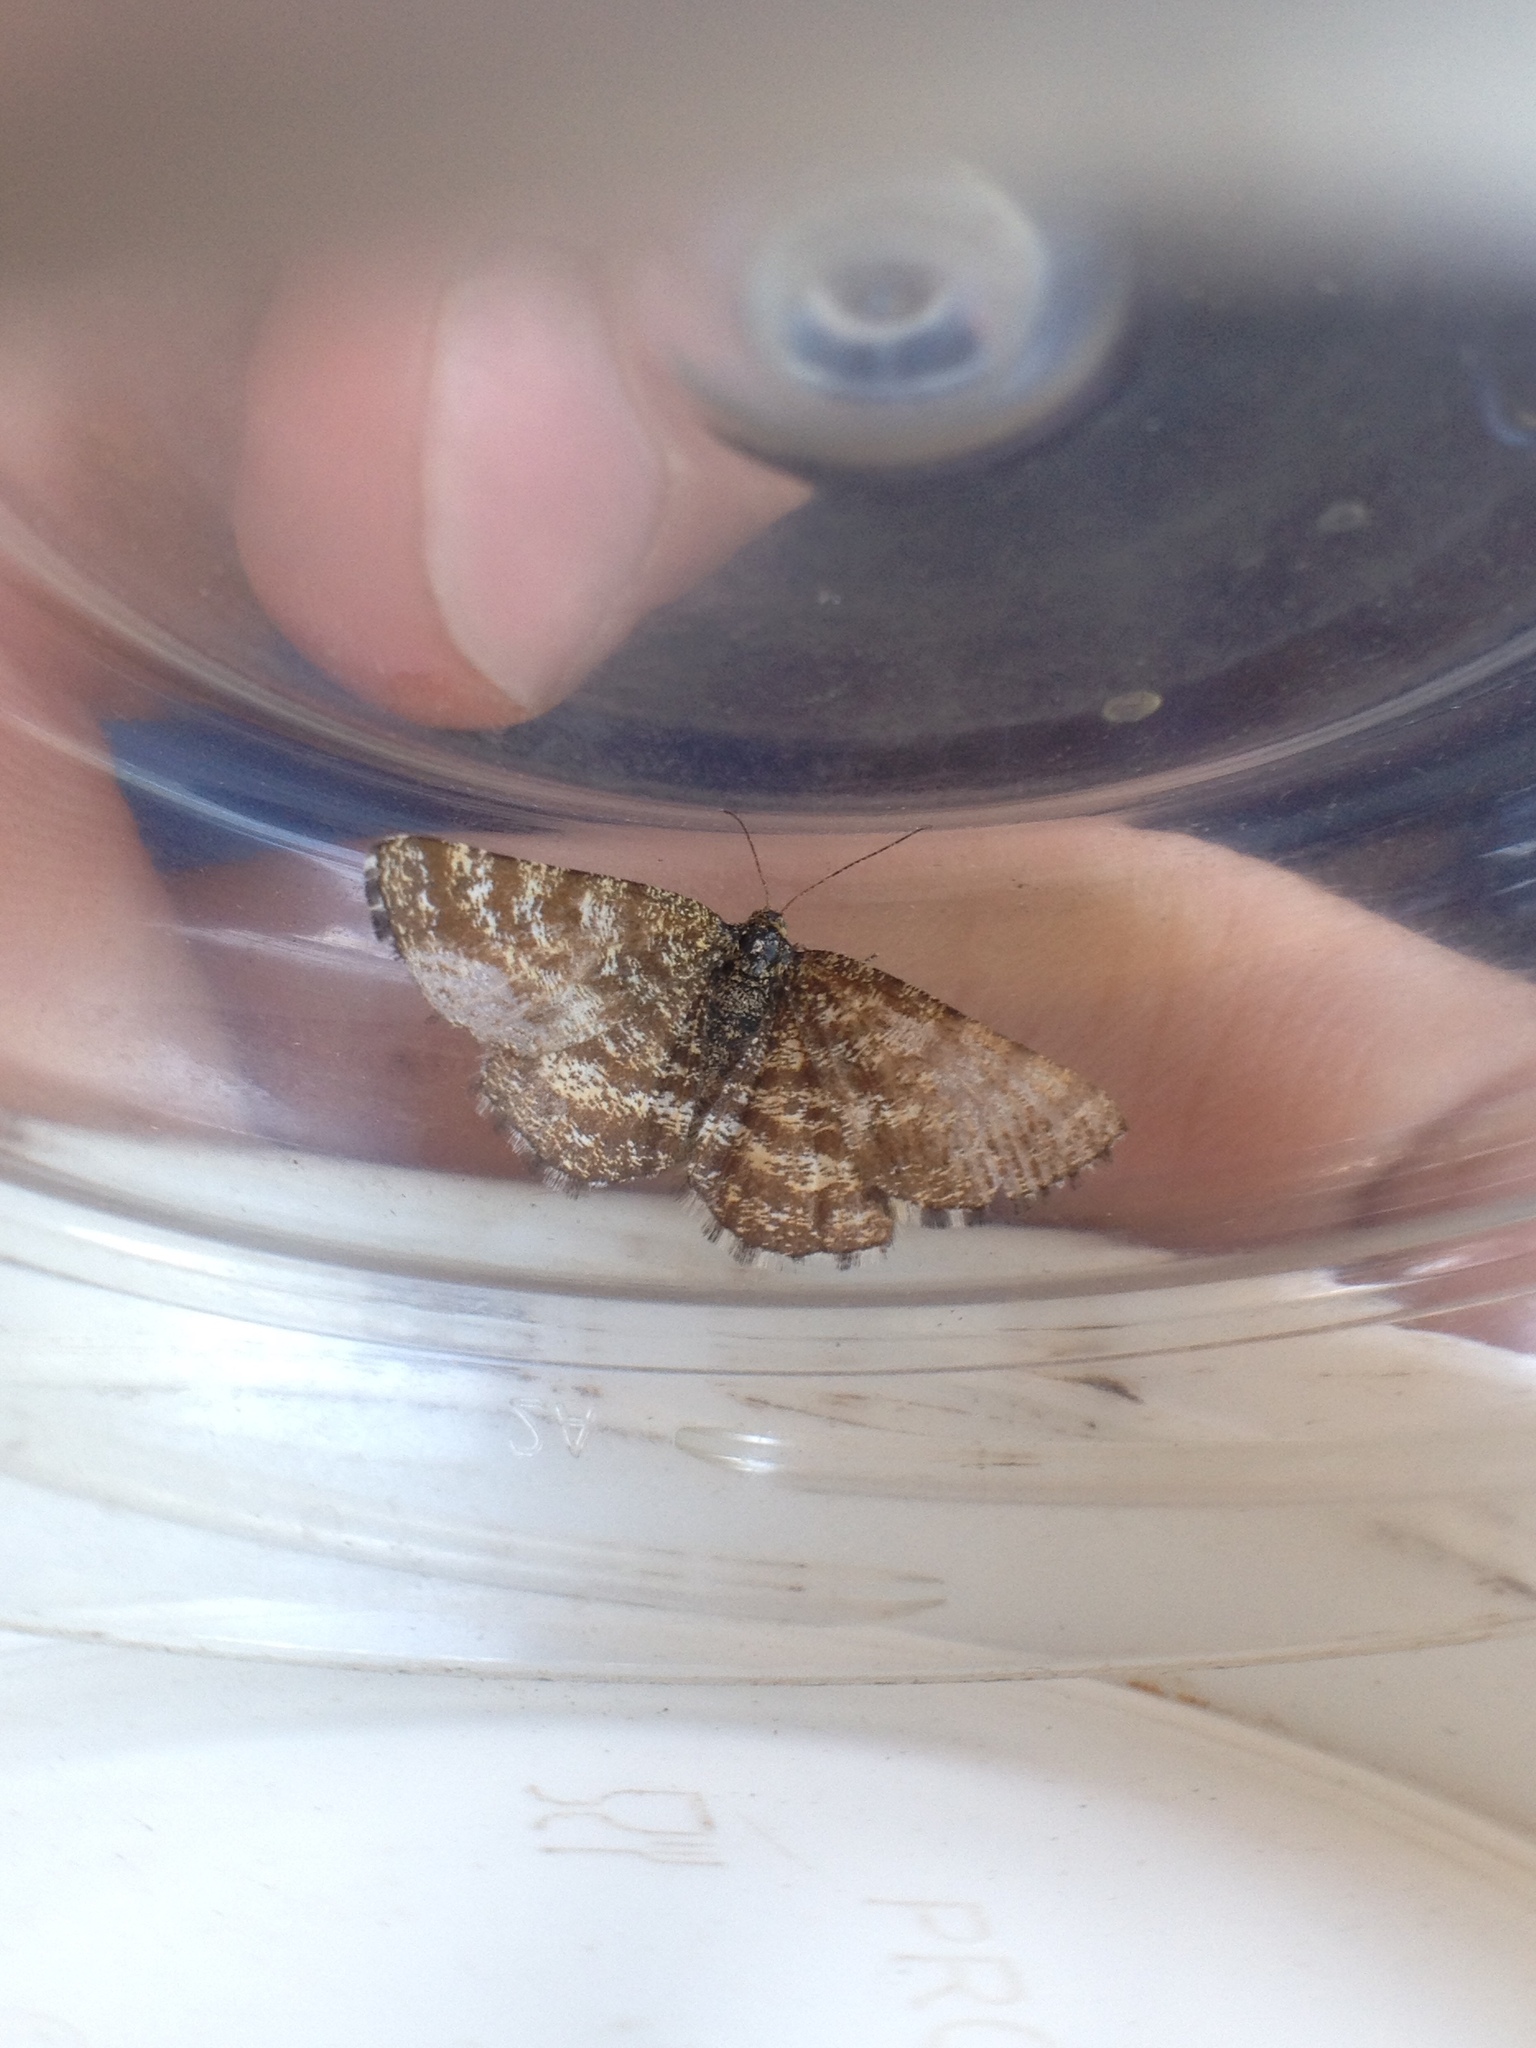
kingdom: Animalia
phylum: Arthropoda
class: Insecta
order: Lepidoptera
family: Geometridae
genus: Ematurga
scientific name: Ematurga atomaria
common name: Common heath
